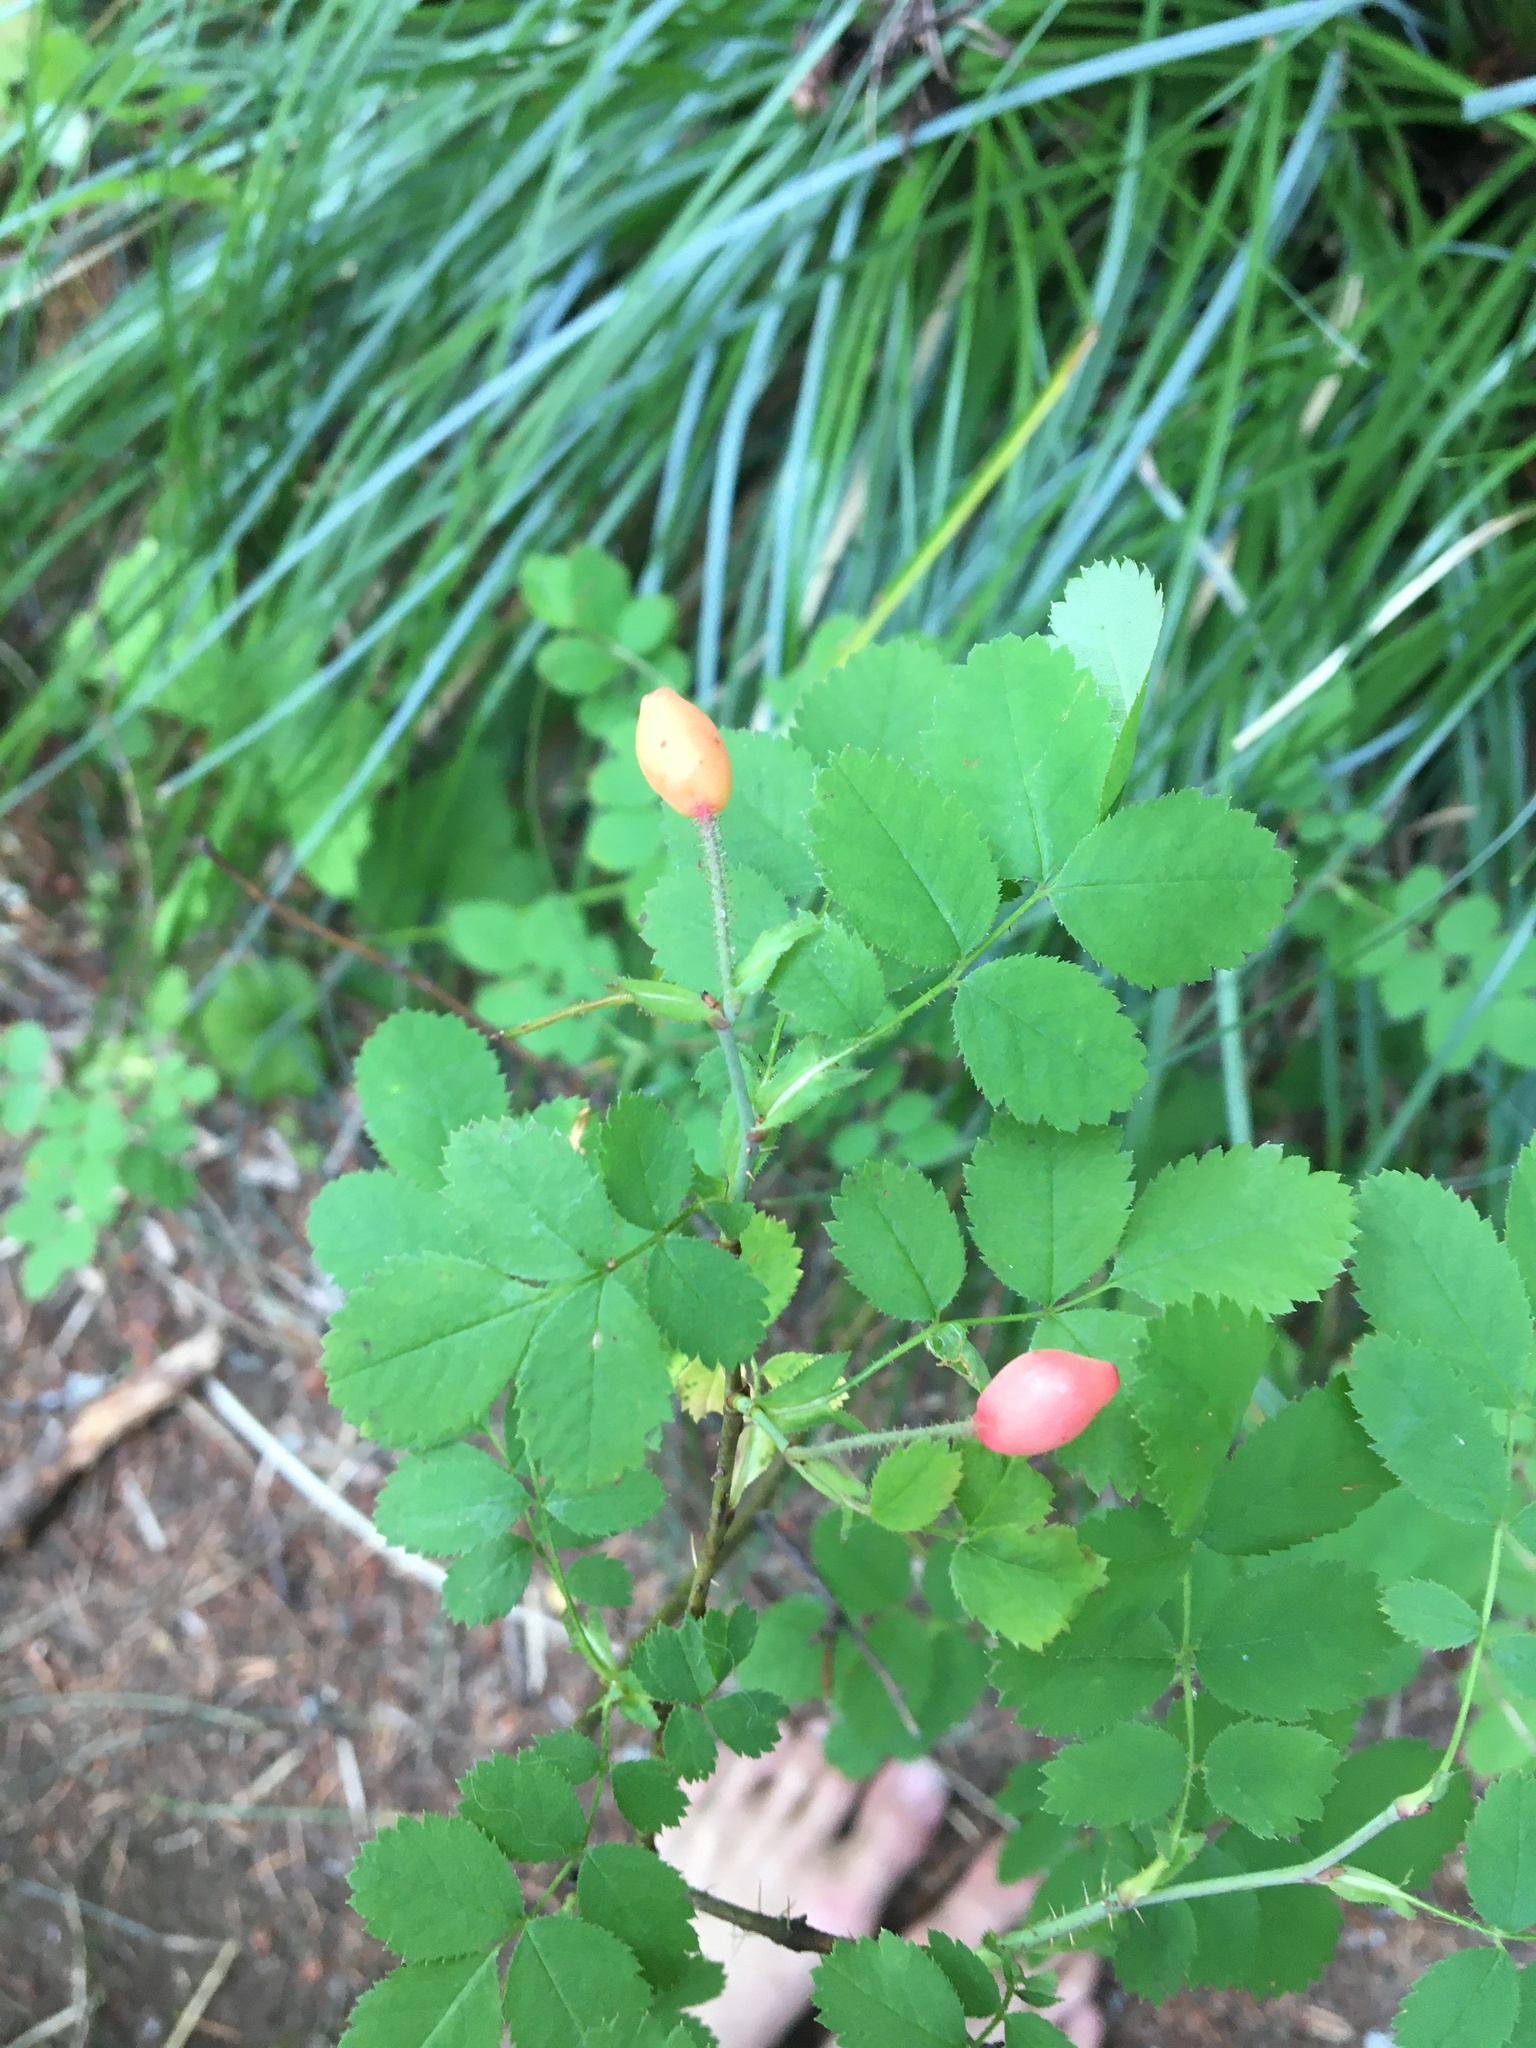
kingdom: Plantae
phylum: Tracheophyta
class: Magnoliopsida
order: Rosales
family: Rosaceae
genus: Rosa
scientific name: Rosa gymnocarpa
